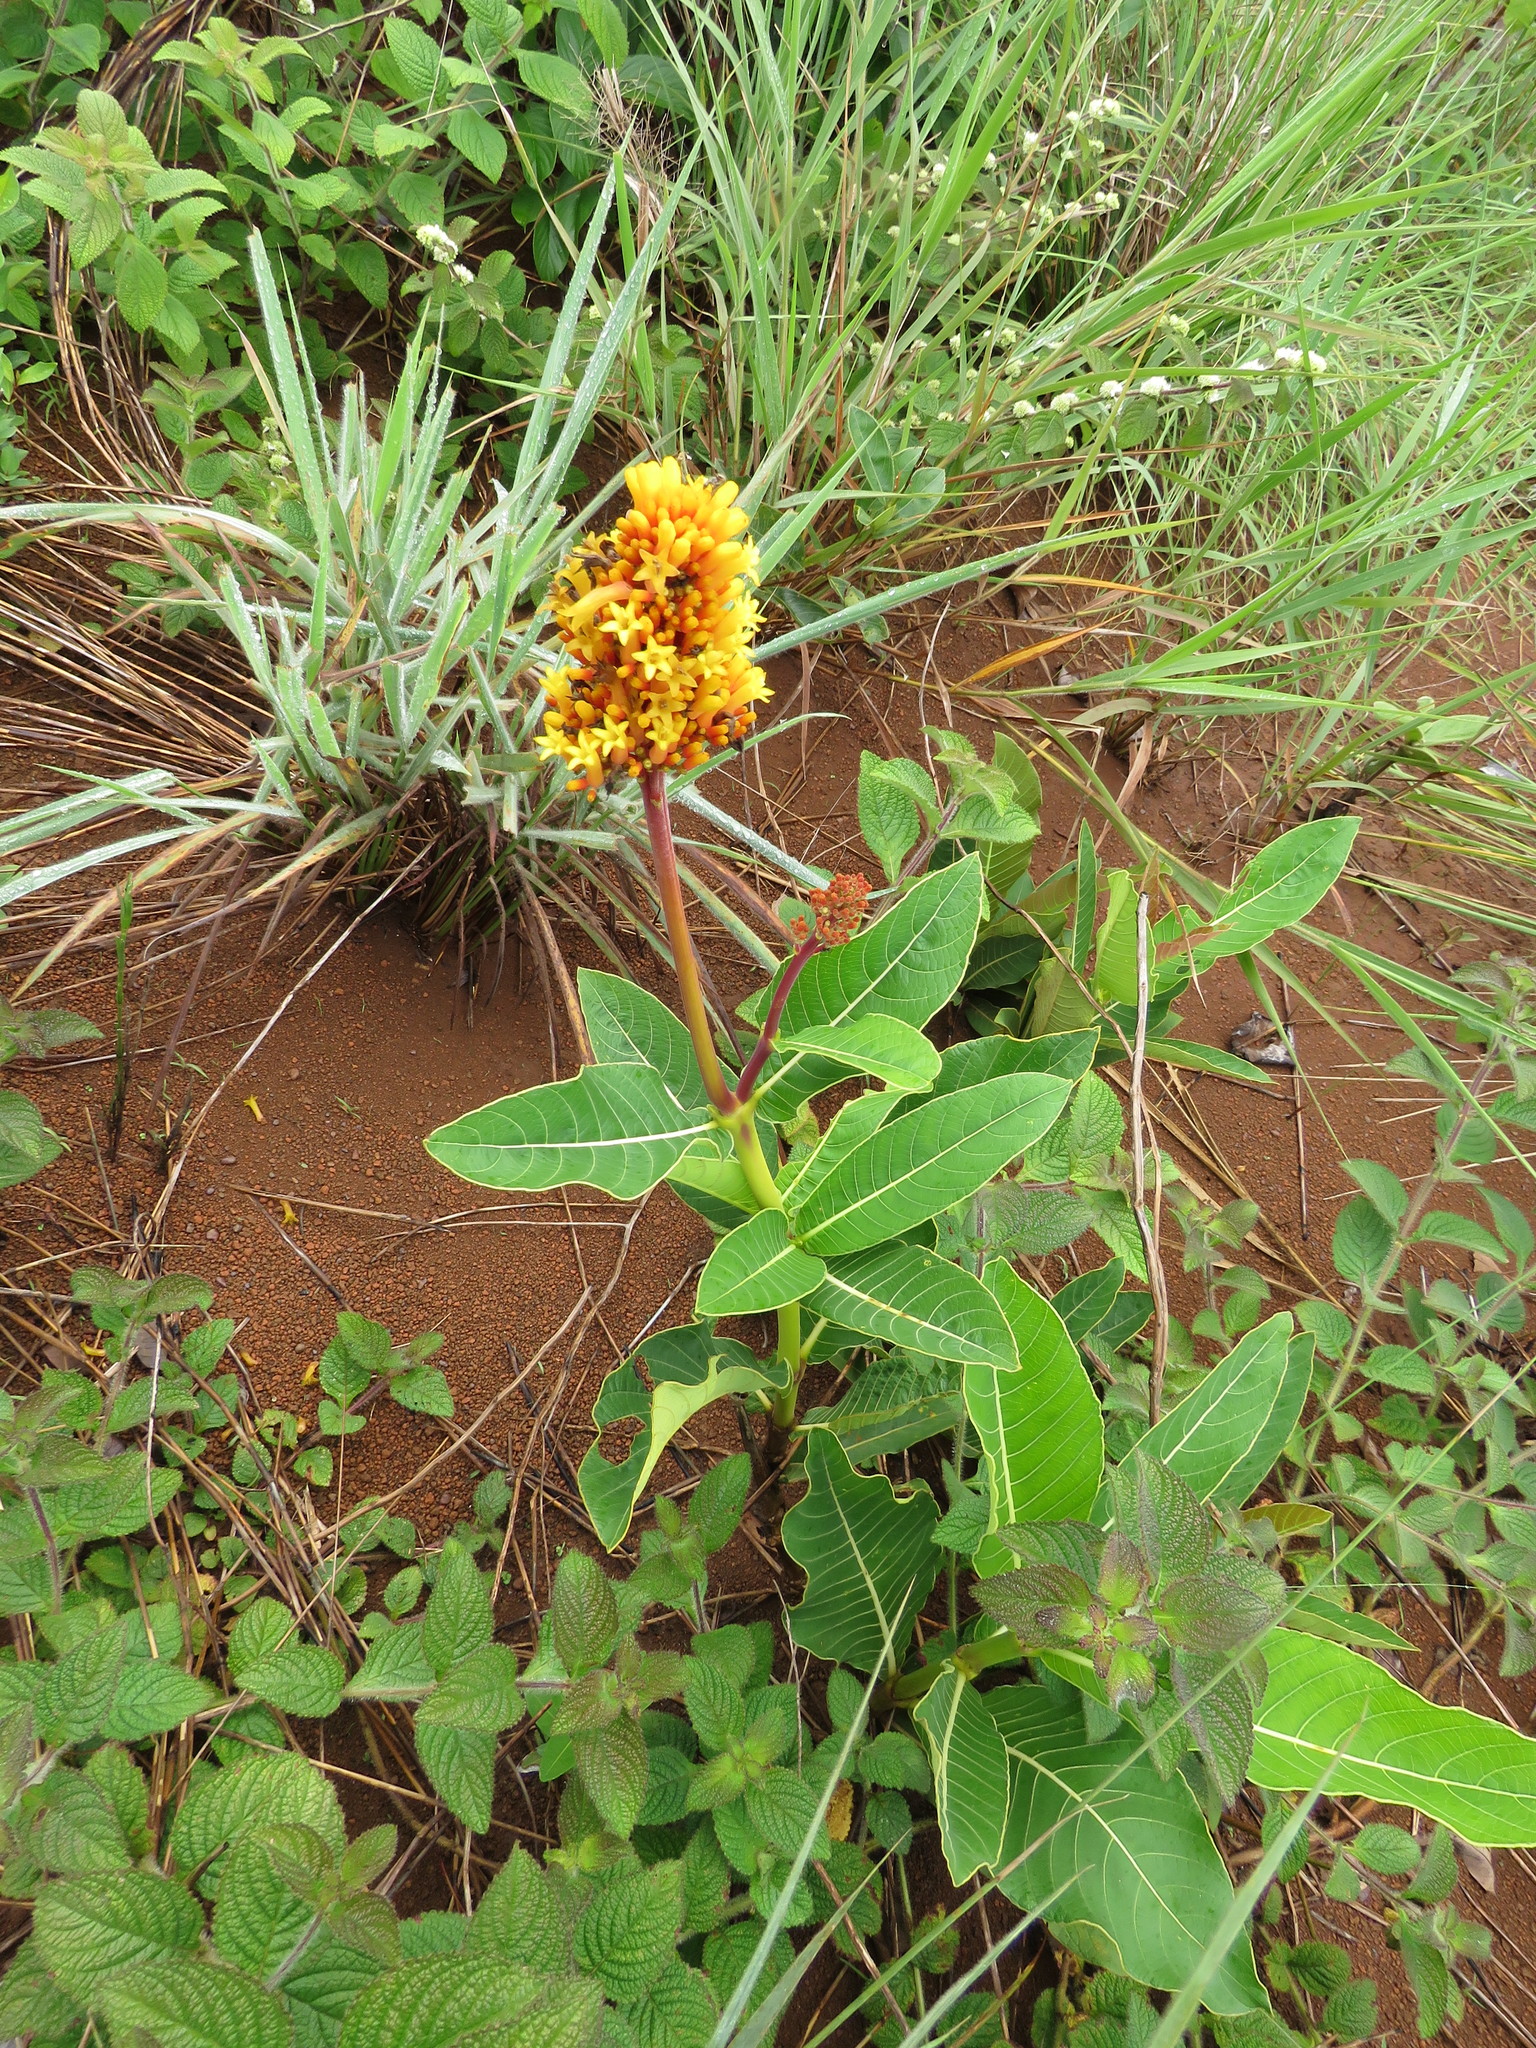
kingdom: Plantae
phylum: Tracheophyta
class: Magnoliopsida
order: Gentianales
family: Rubiaceae
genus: Palicourea
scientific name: Palicourea rigida
